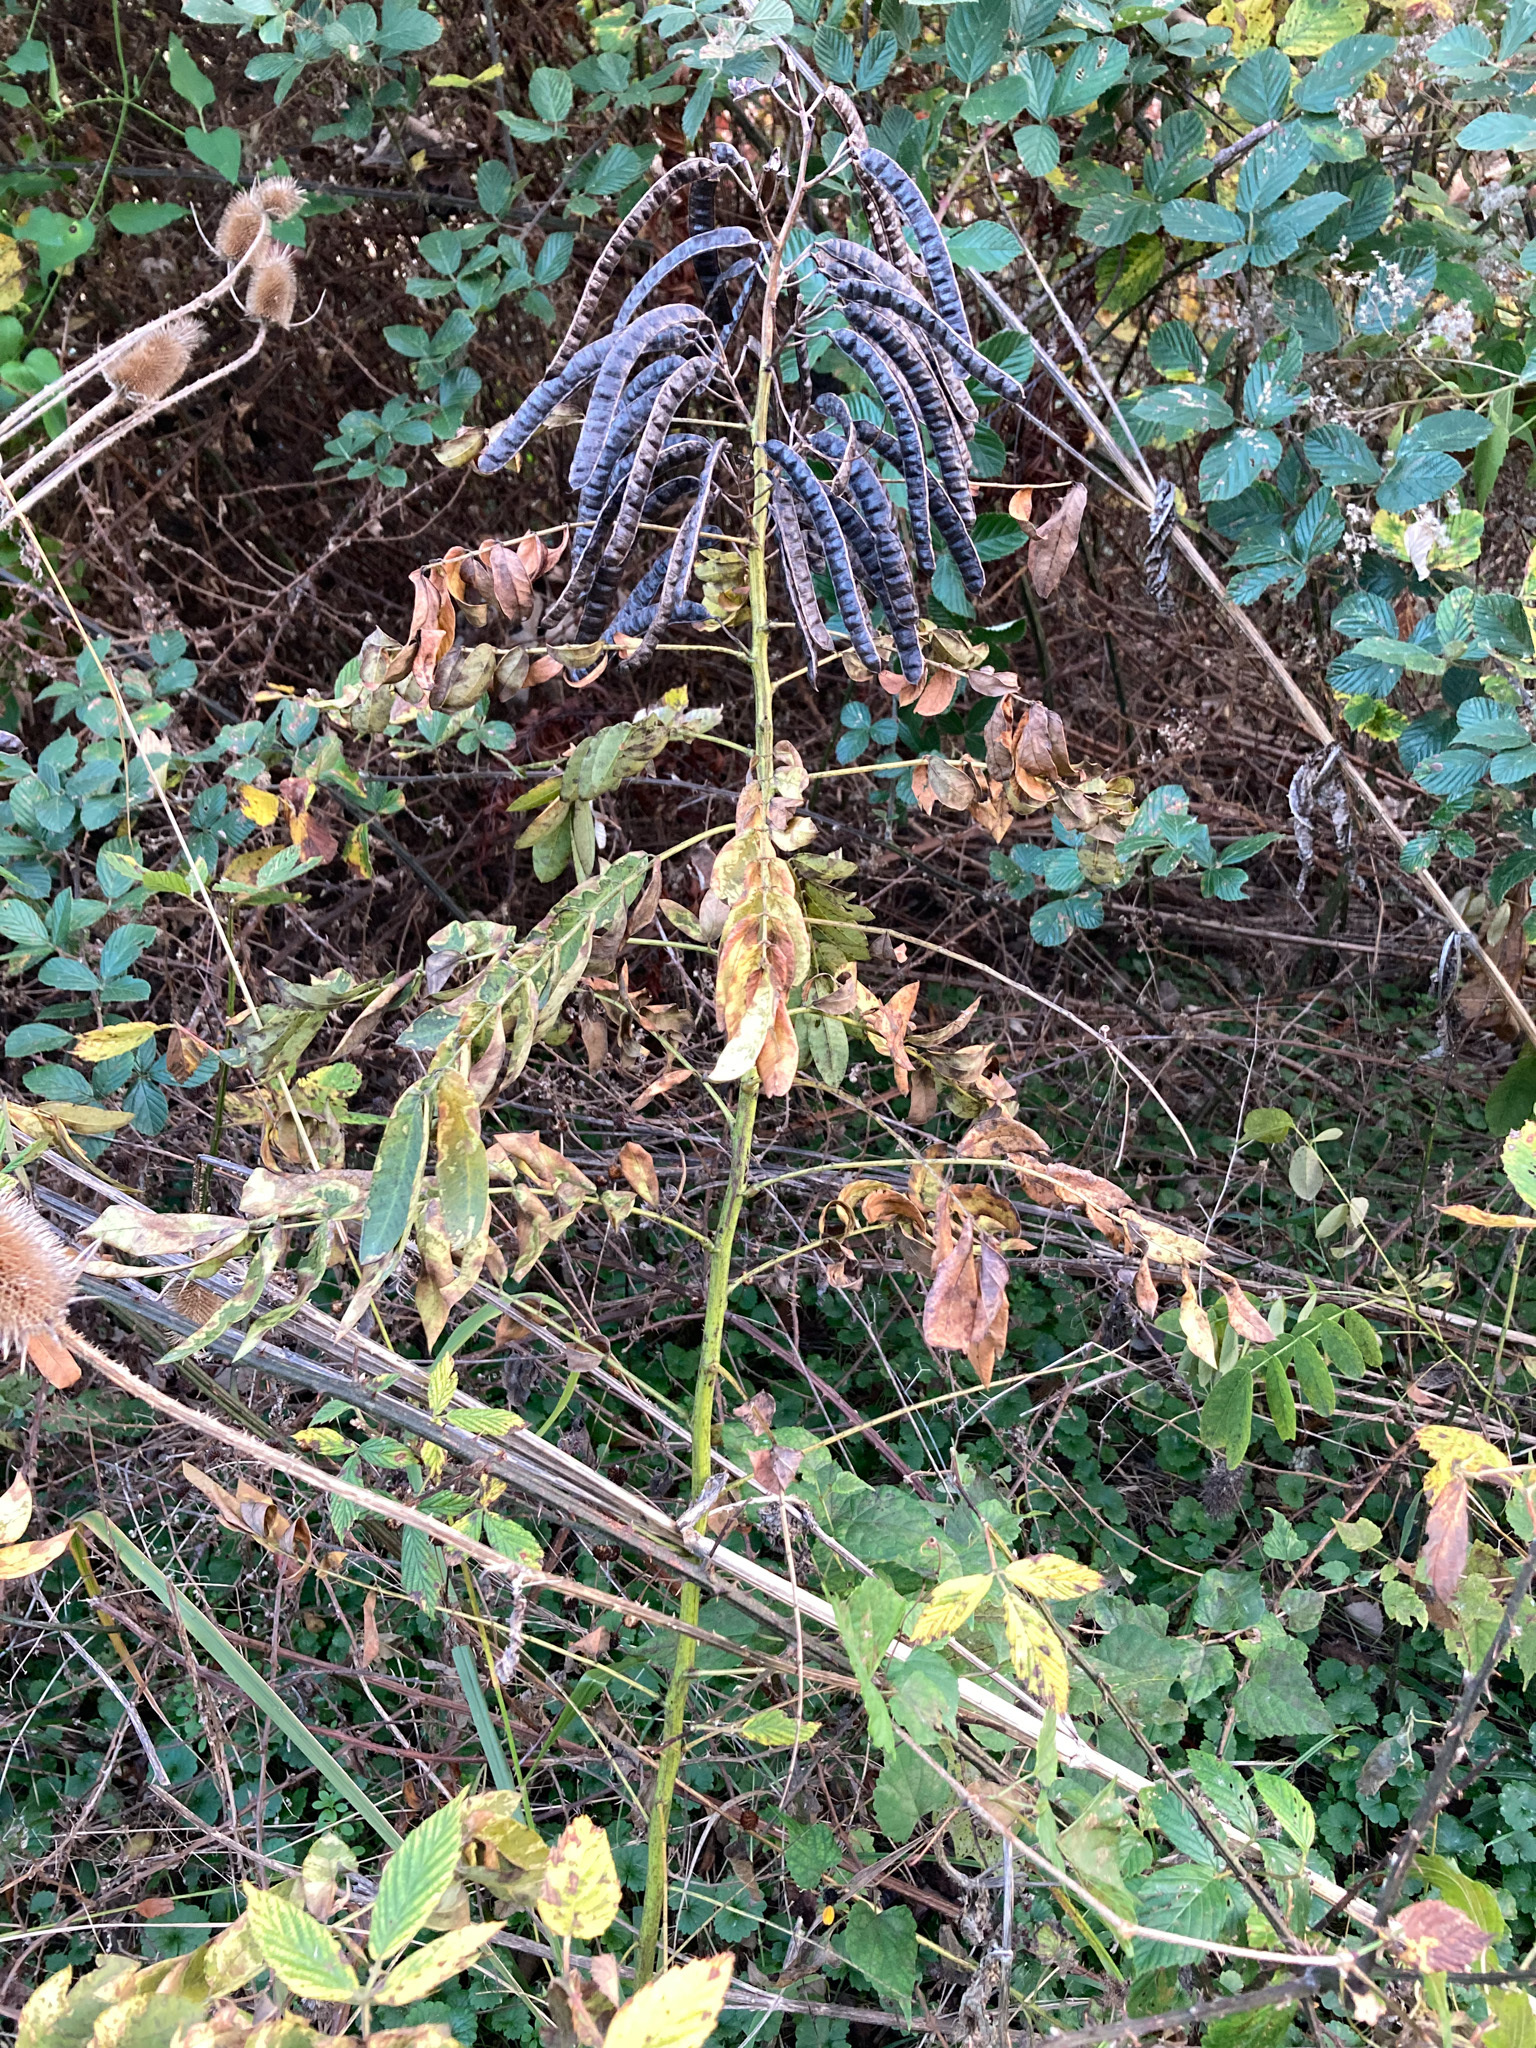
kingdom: Plantae
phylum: Tracheophyta
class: Magnoliopsida
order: Fabales
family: Fabaceae
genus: Senna
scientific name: Senna marilandica
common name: American senna
